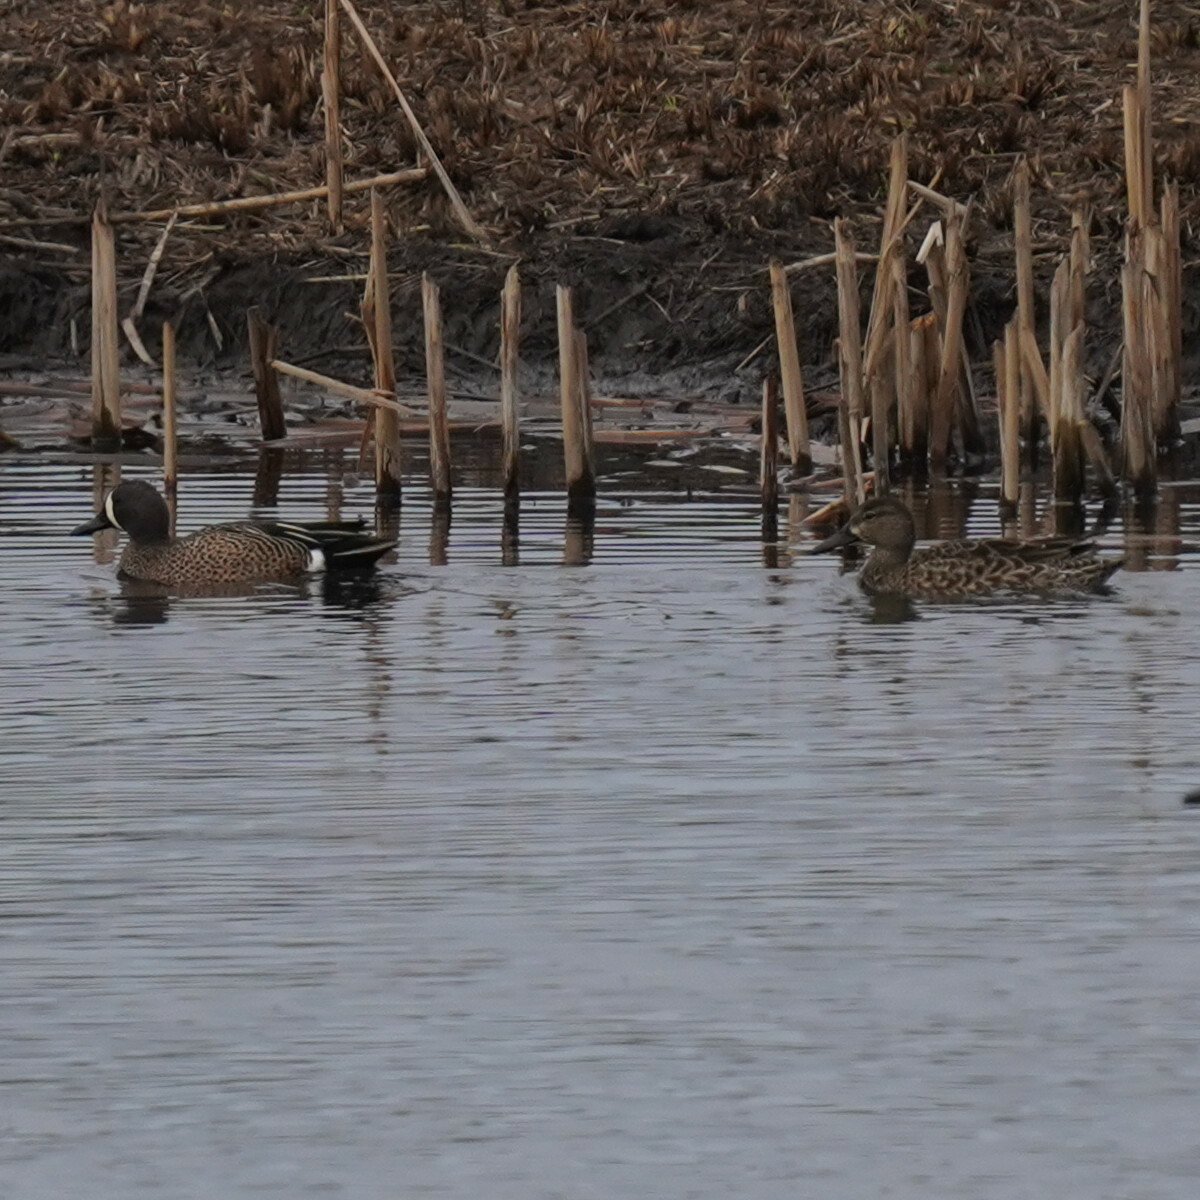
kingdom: Animalia
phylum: Chordata
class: Aves
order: Anseriformes
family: Anatidae
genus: Spatula
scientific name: Spatula discors
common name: Blue-winged teal
